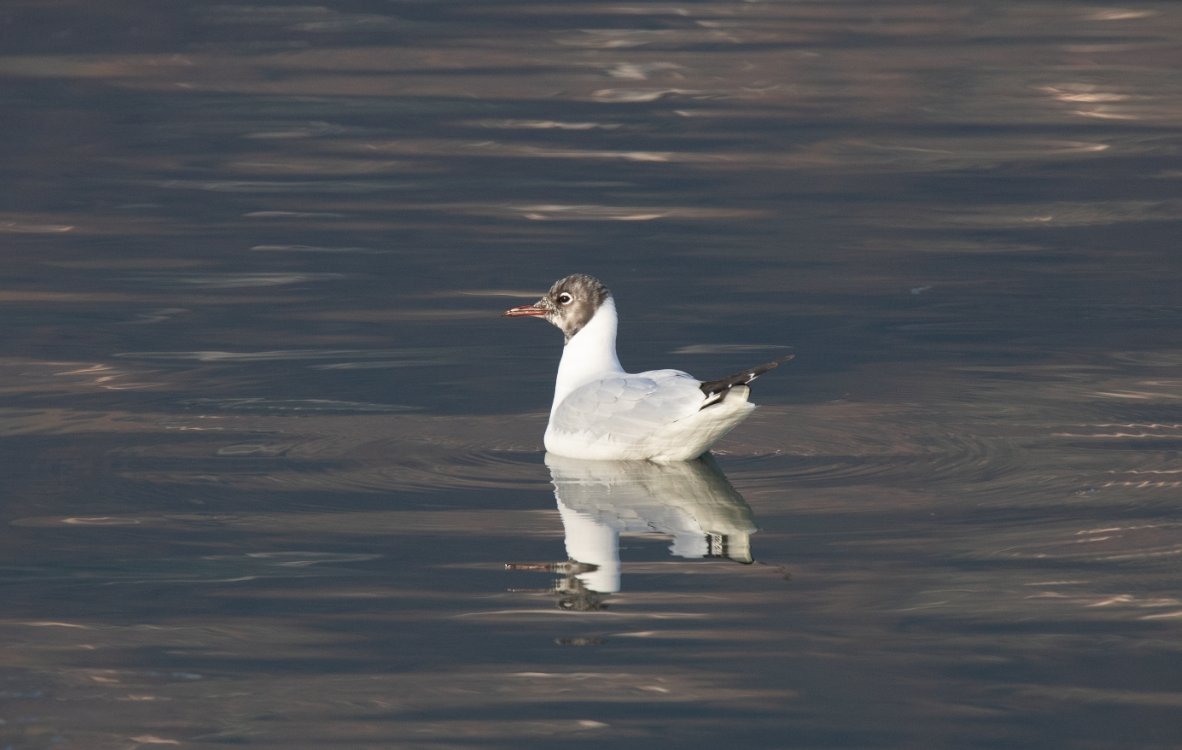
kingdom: Animalia
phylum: Chordata
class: Aves
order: Charadriiformes
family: Laridae
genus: Chroicocephalus
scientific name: Chroicocephalus ridibundus
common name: Black-headed gull
